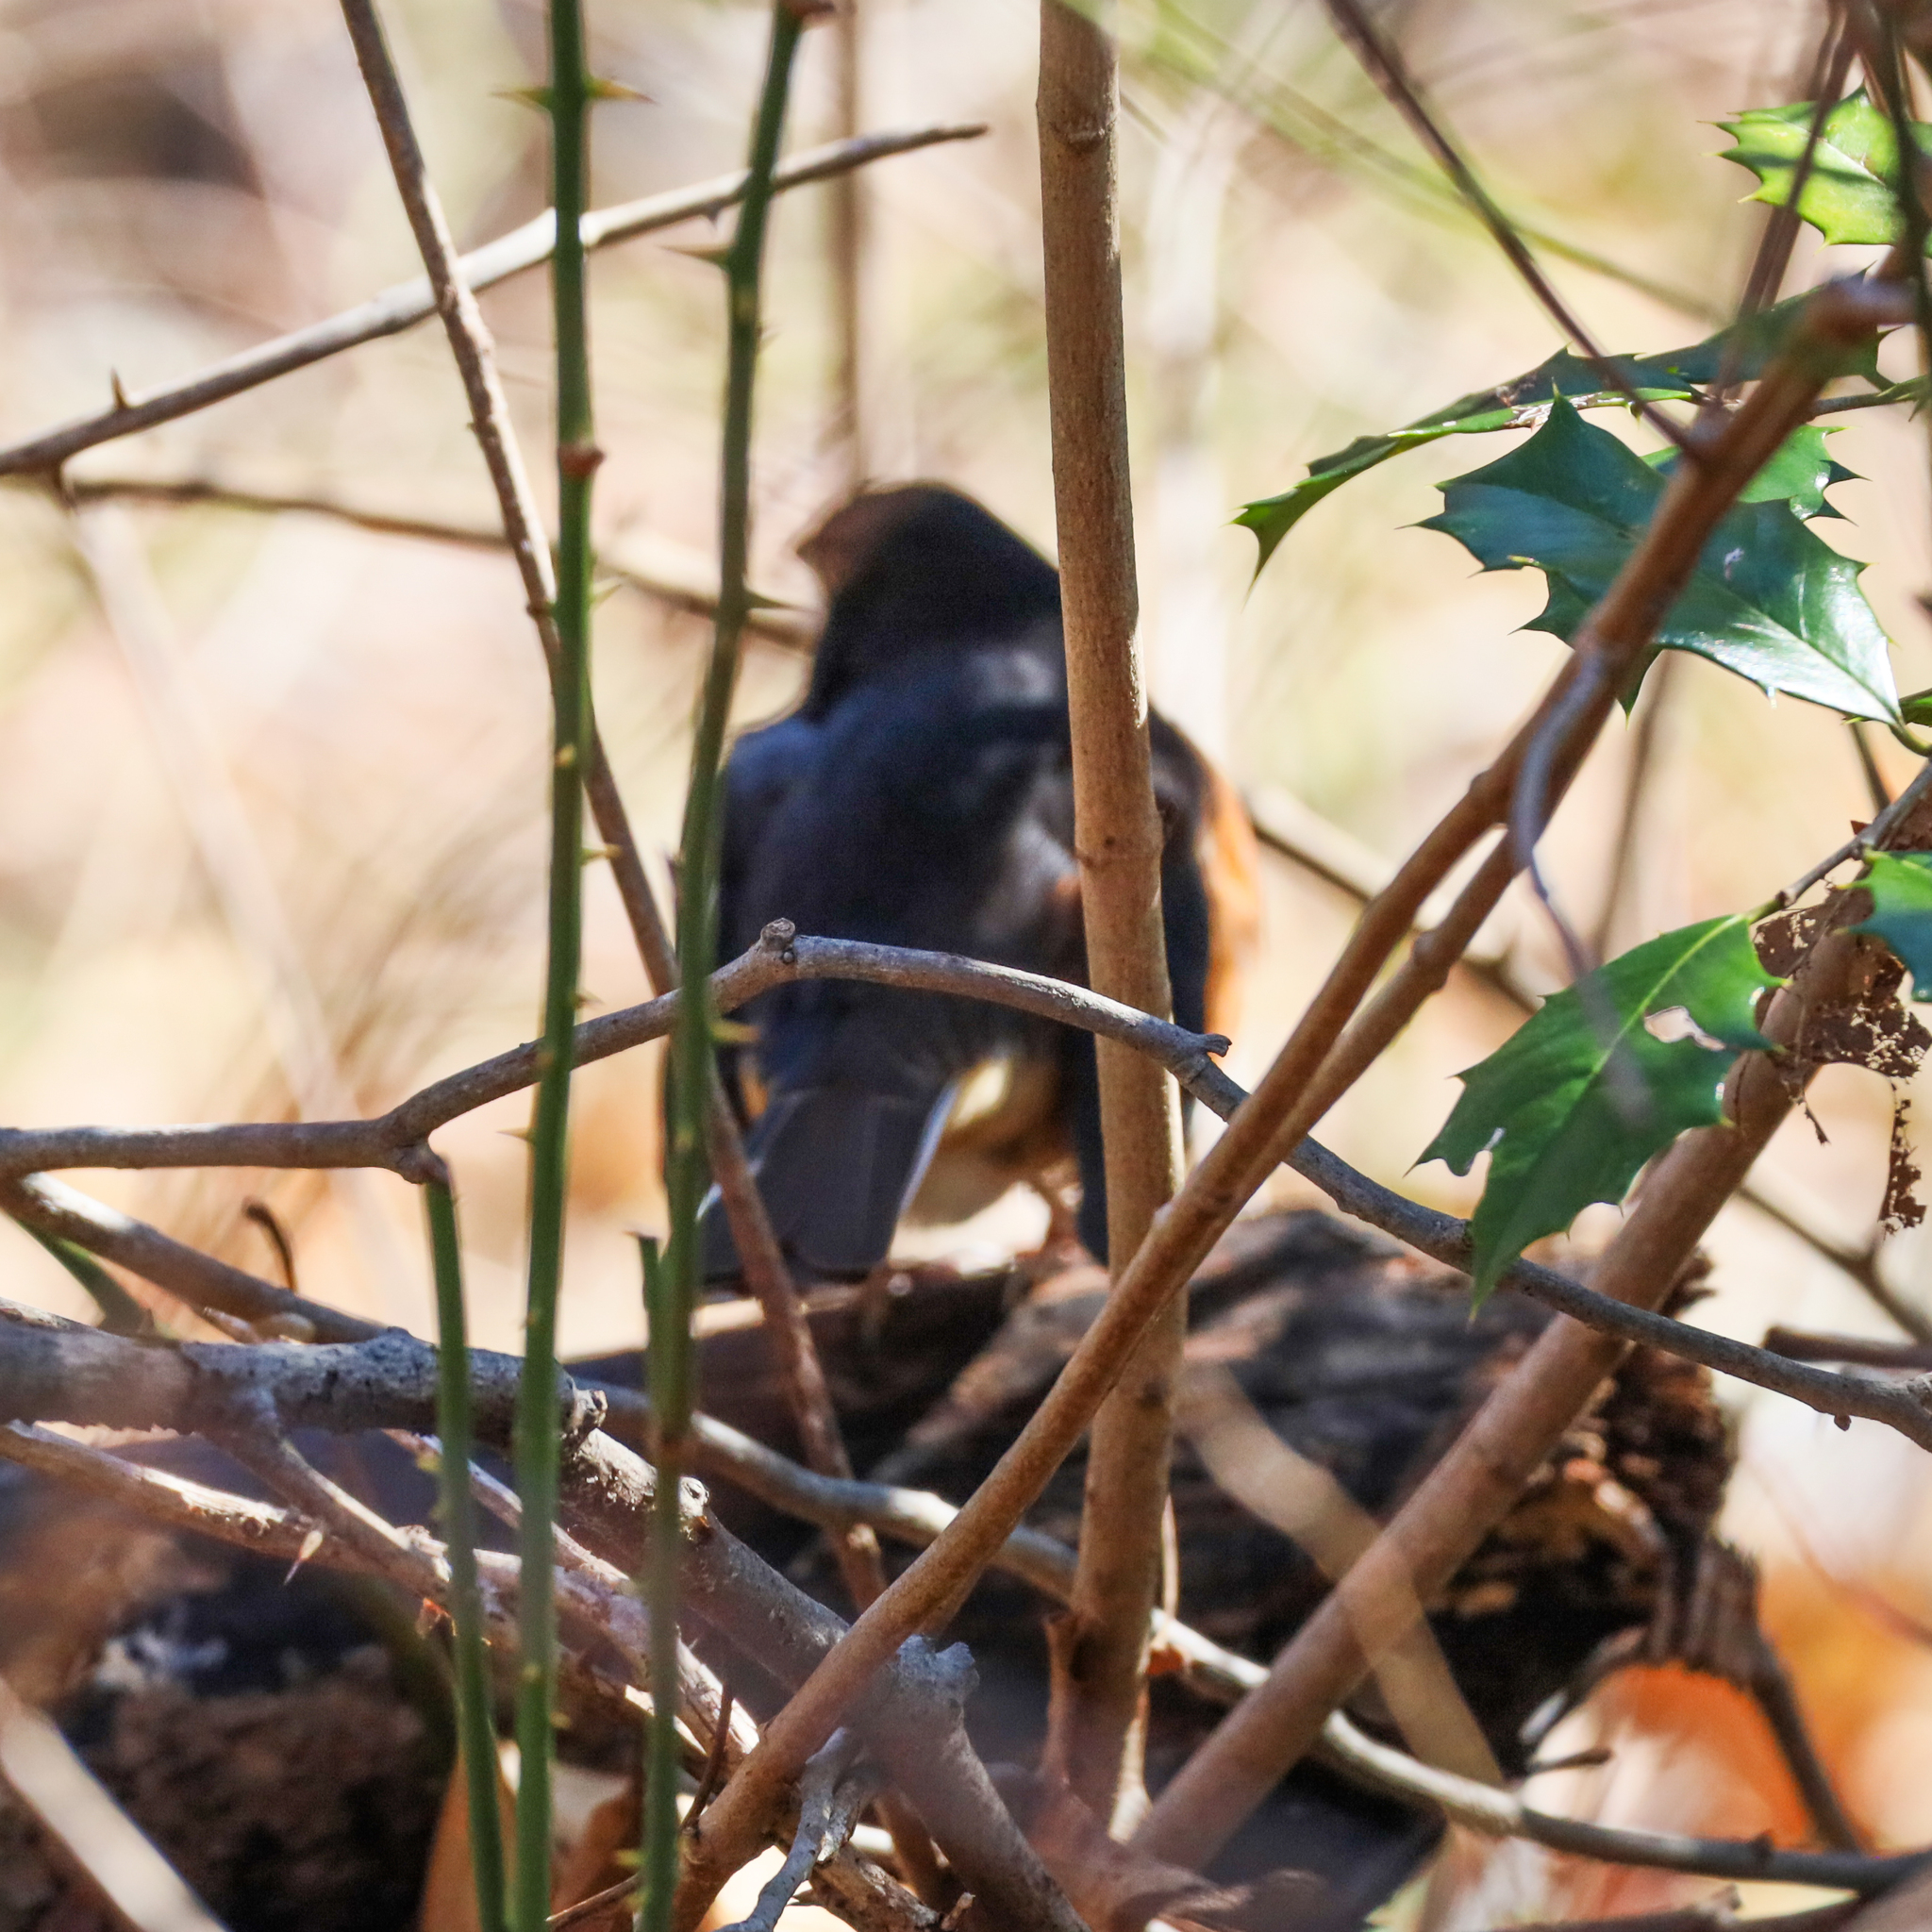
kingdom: Animalia
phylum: Chordata
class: Aves
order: Passeriformes
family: Passerellidae
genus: Pipilo
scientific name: Pipilo erythrophthalmus
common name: Eastern towhee
